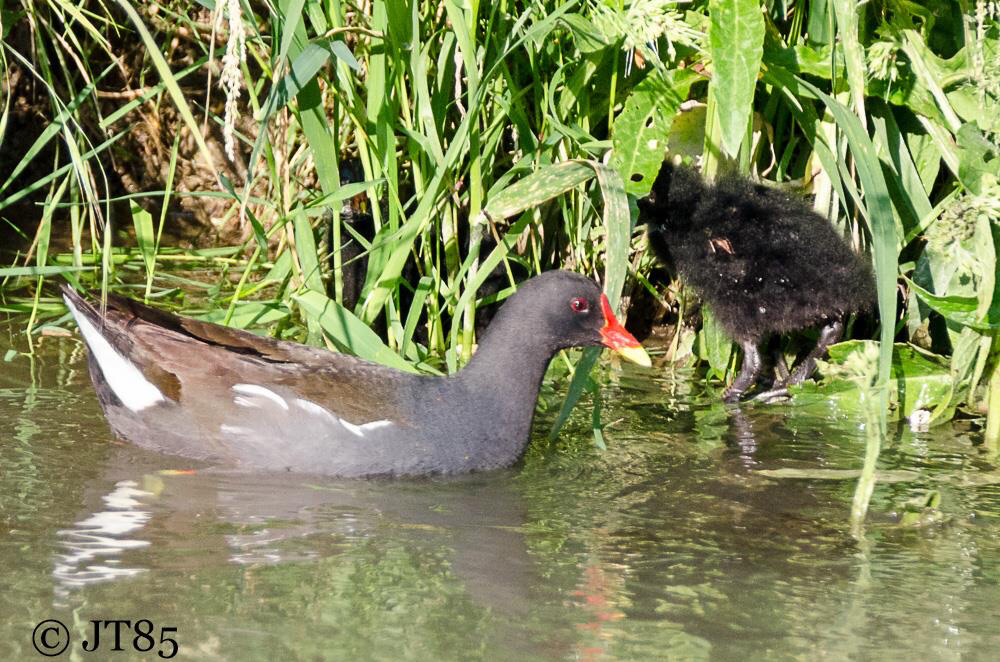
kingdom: Animalia
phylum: Chordata
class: Aves
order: Gruiformes
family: Rallidae
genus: Gallinula
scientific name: Gallinula chloropus
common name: Common moorhen
